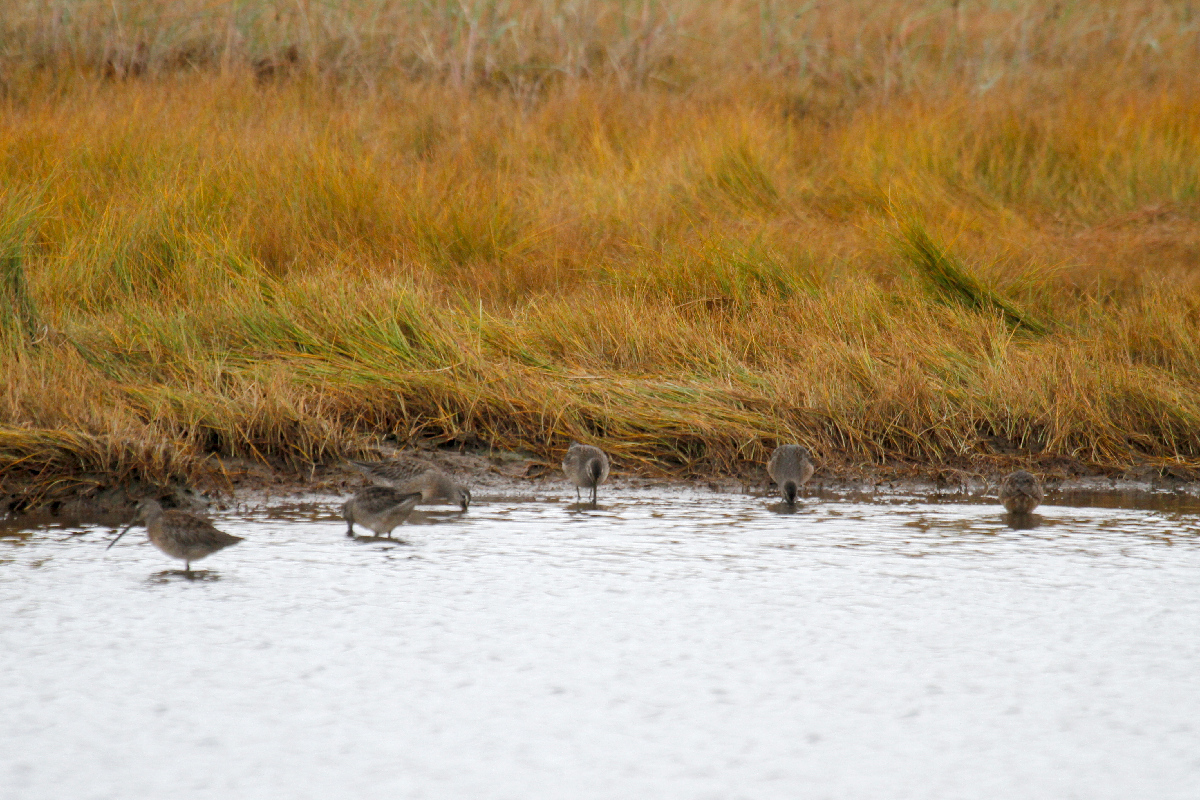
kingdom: Animalia
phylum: Chordata
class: Aves
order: Charadriiformes
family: Scolopacidae
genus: Limnodromus
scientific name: Limnodromus scolopaceus
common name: Long-billed dowitcher
